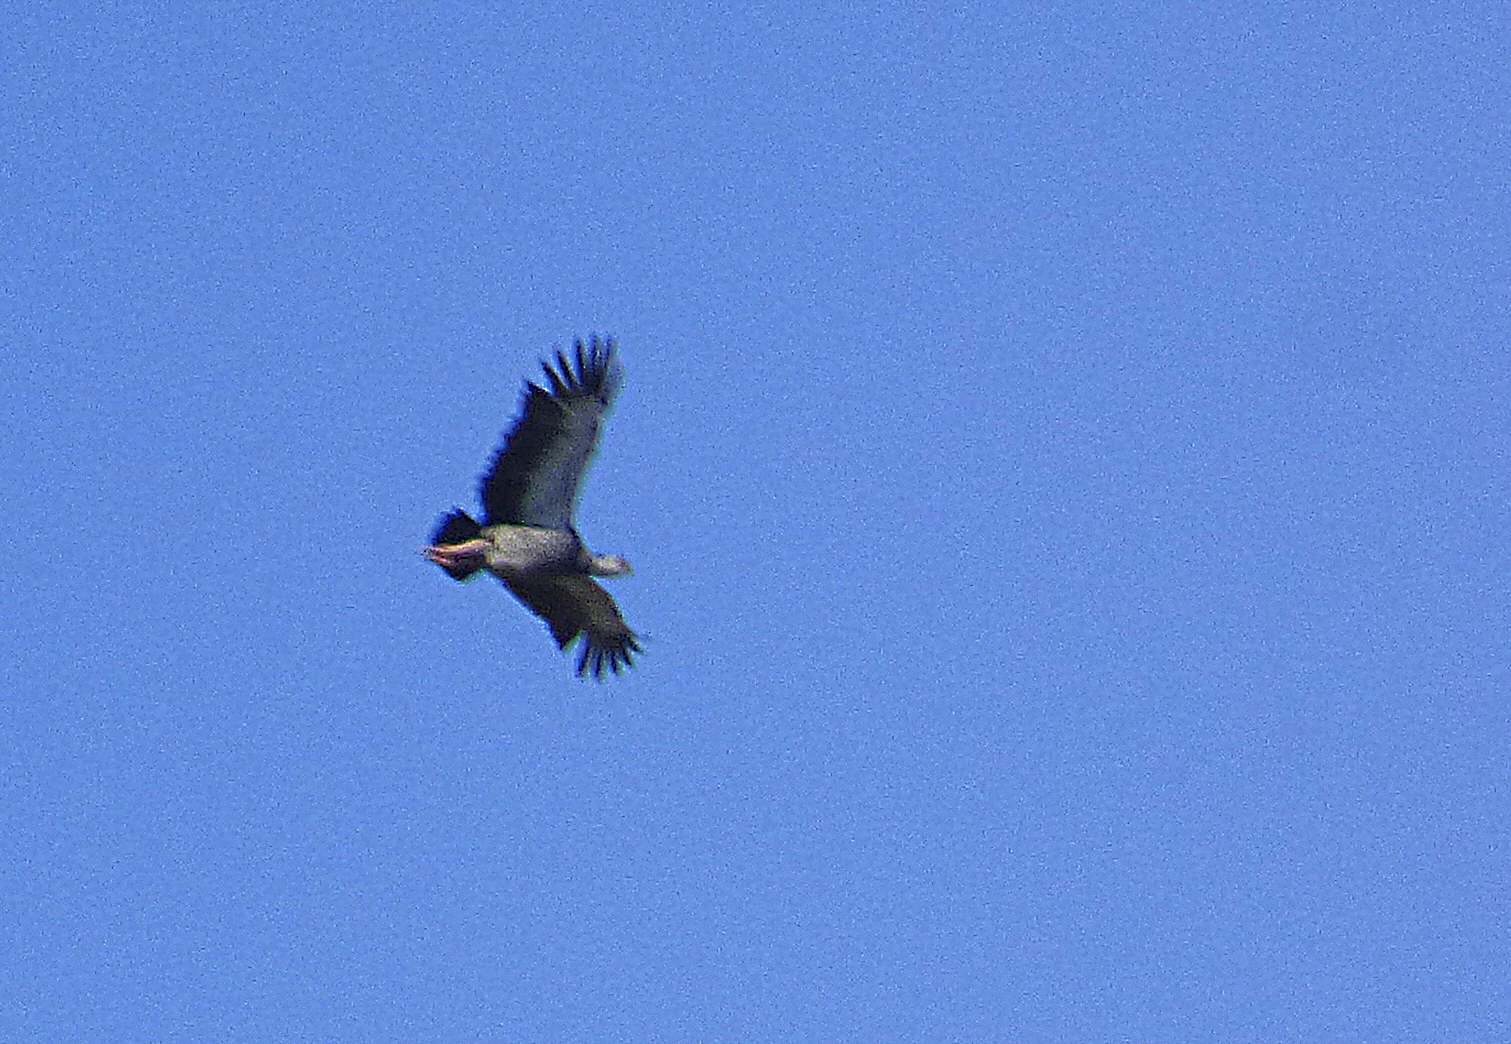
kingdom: Animalia
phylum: Chordata
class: Aves
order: Anseriformes
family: Anhimidae
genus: Chauna
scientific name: Chauna torquata
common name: Southern screamer
